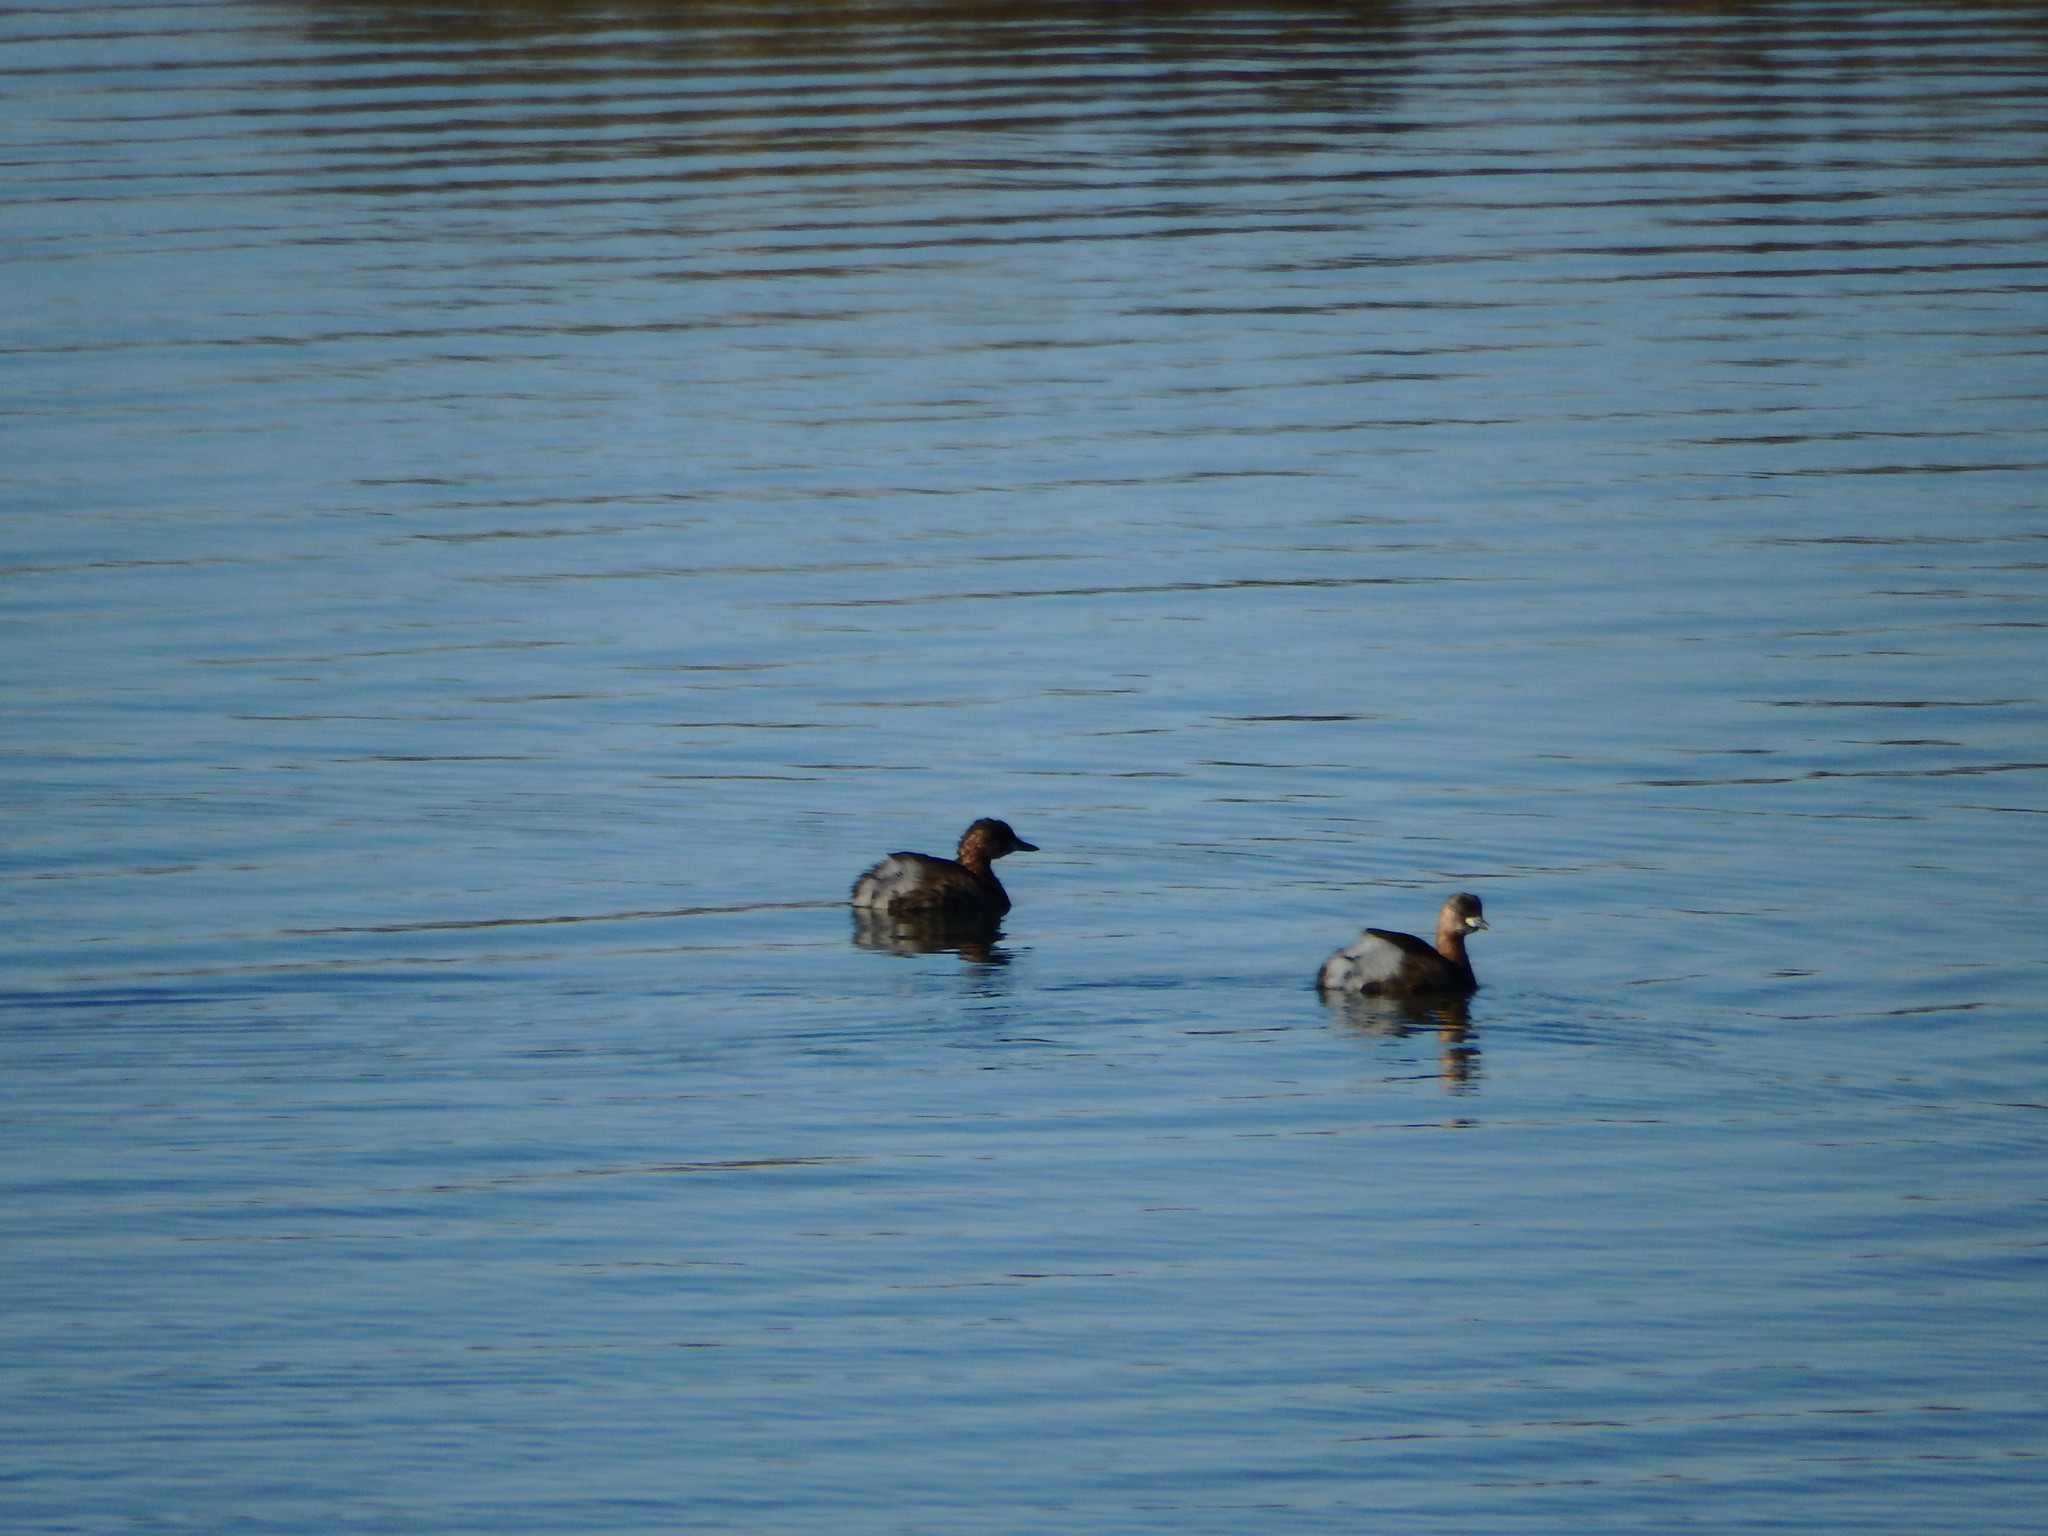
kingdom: Animalia
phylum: Chordata
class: Aves
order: Podicipediformes
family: Podicipedidae
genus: Tachybaptus
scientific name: Tachybaptus ruficollis
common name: Little grebe
